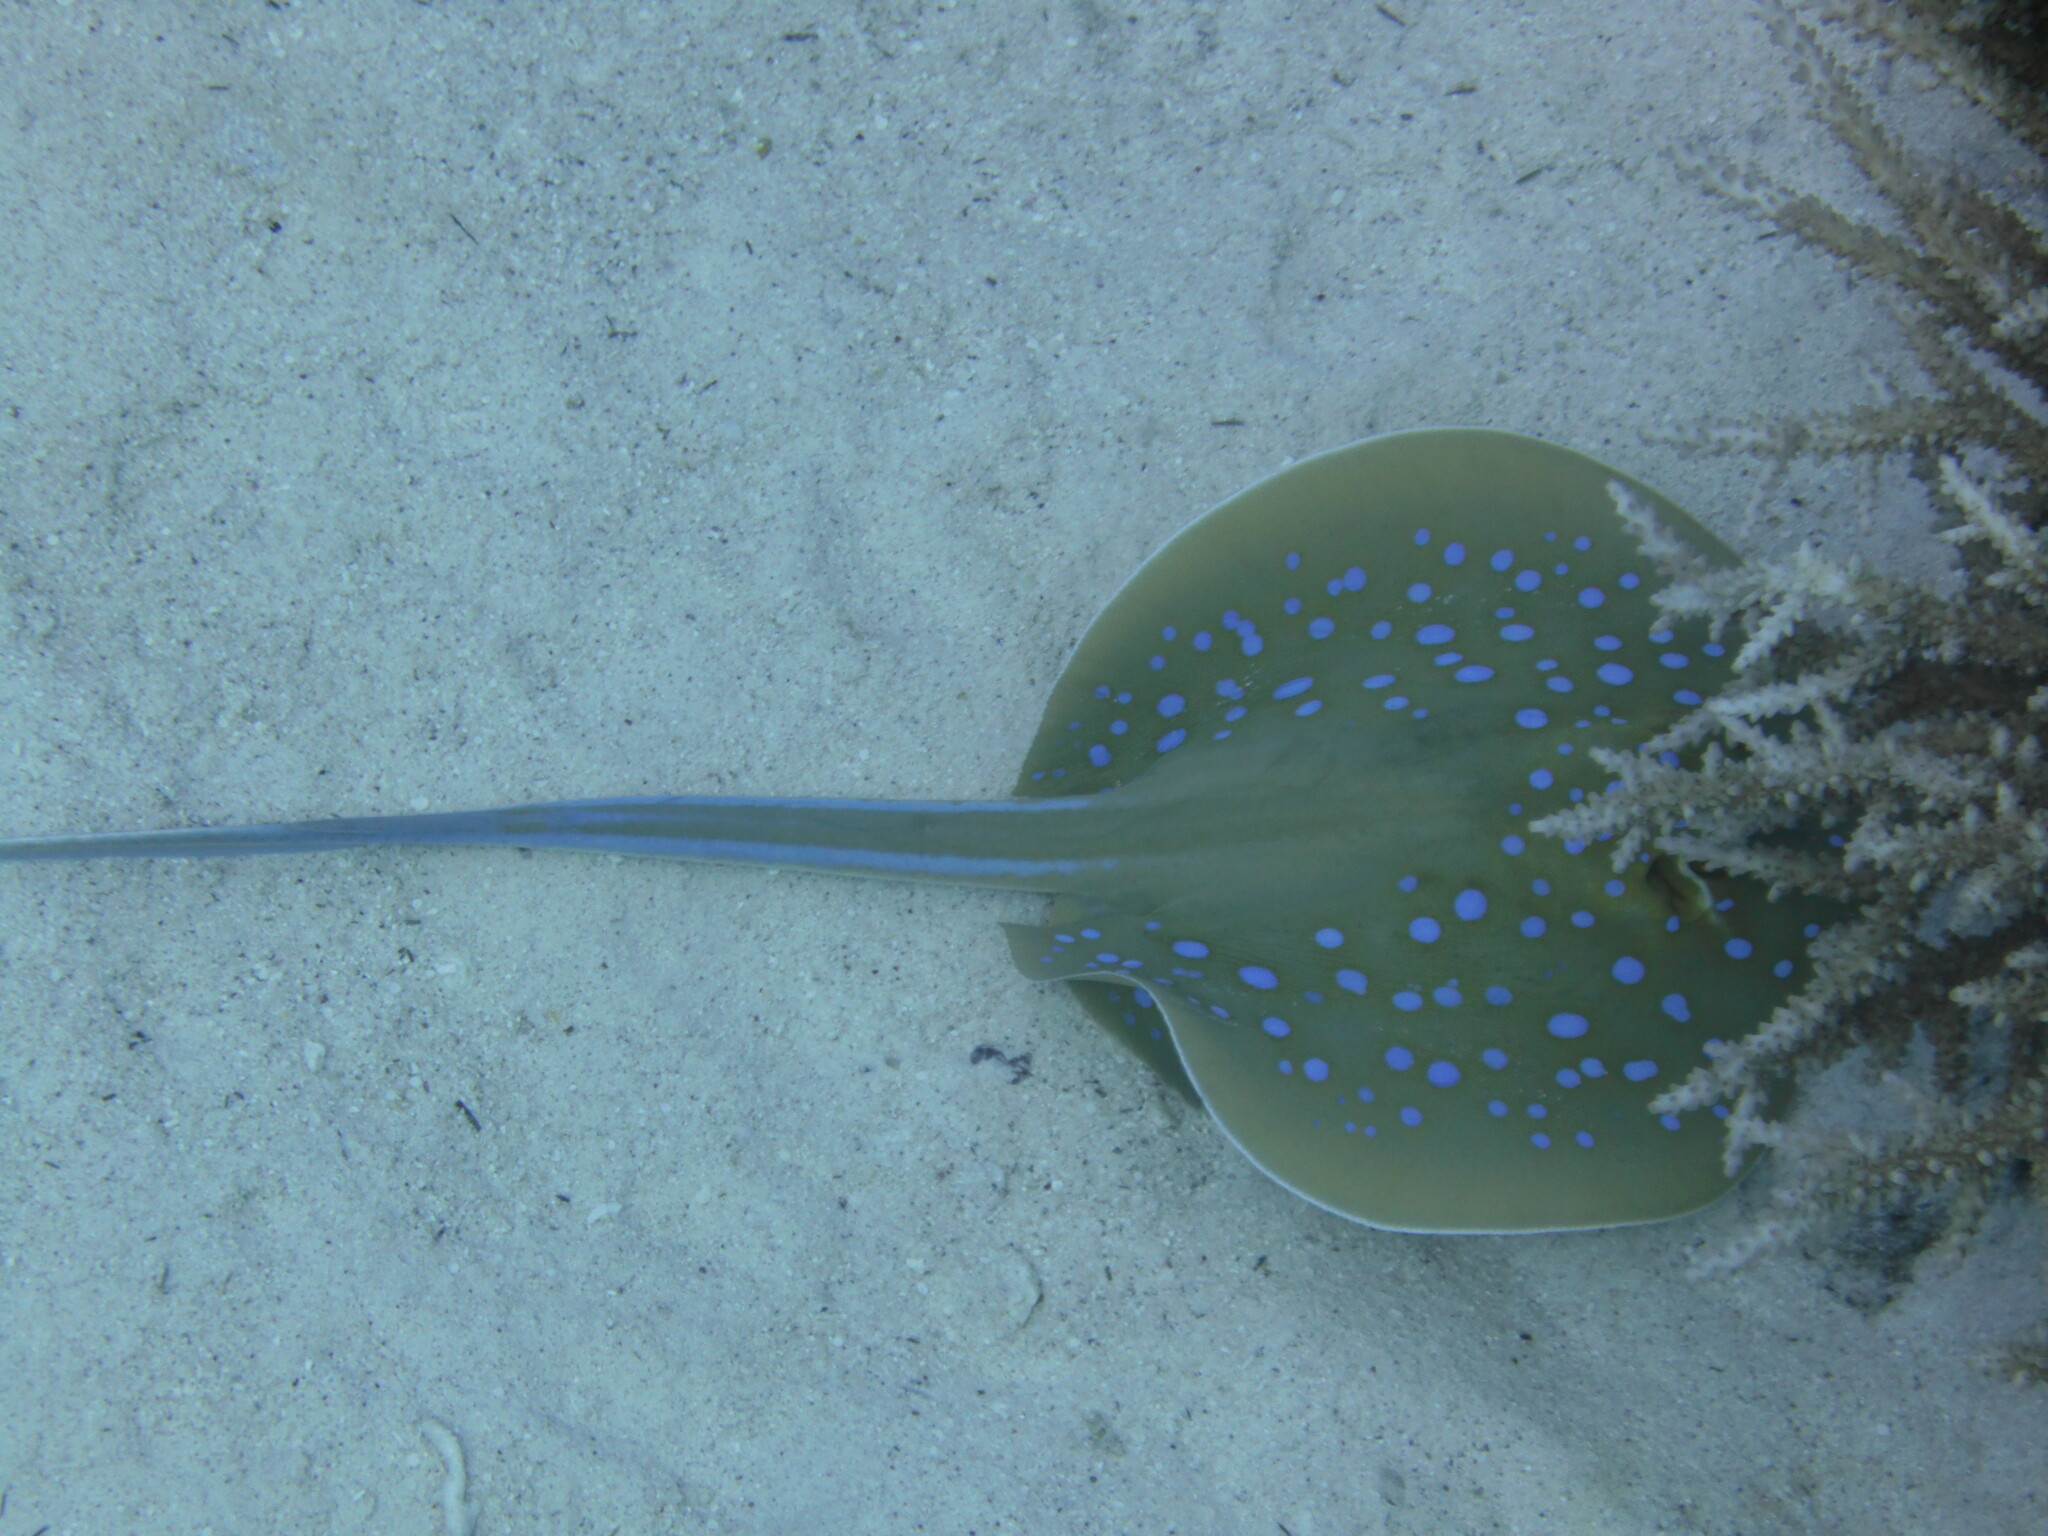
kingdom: Animalia
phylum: Chordata
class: Elasmobranchii
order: Myliobatiformes
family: Dasyatidae
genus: Taeniura
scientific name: Taeniura lymma
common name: Bluespotted ribbontail ray
